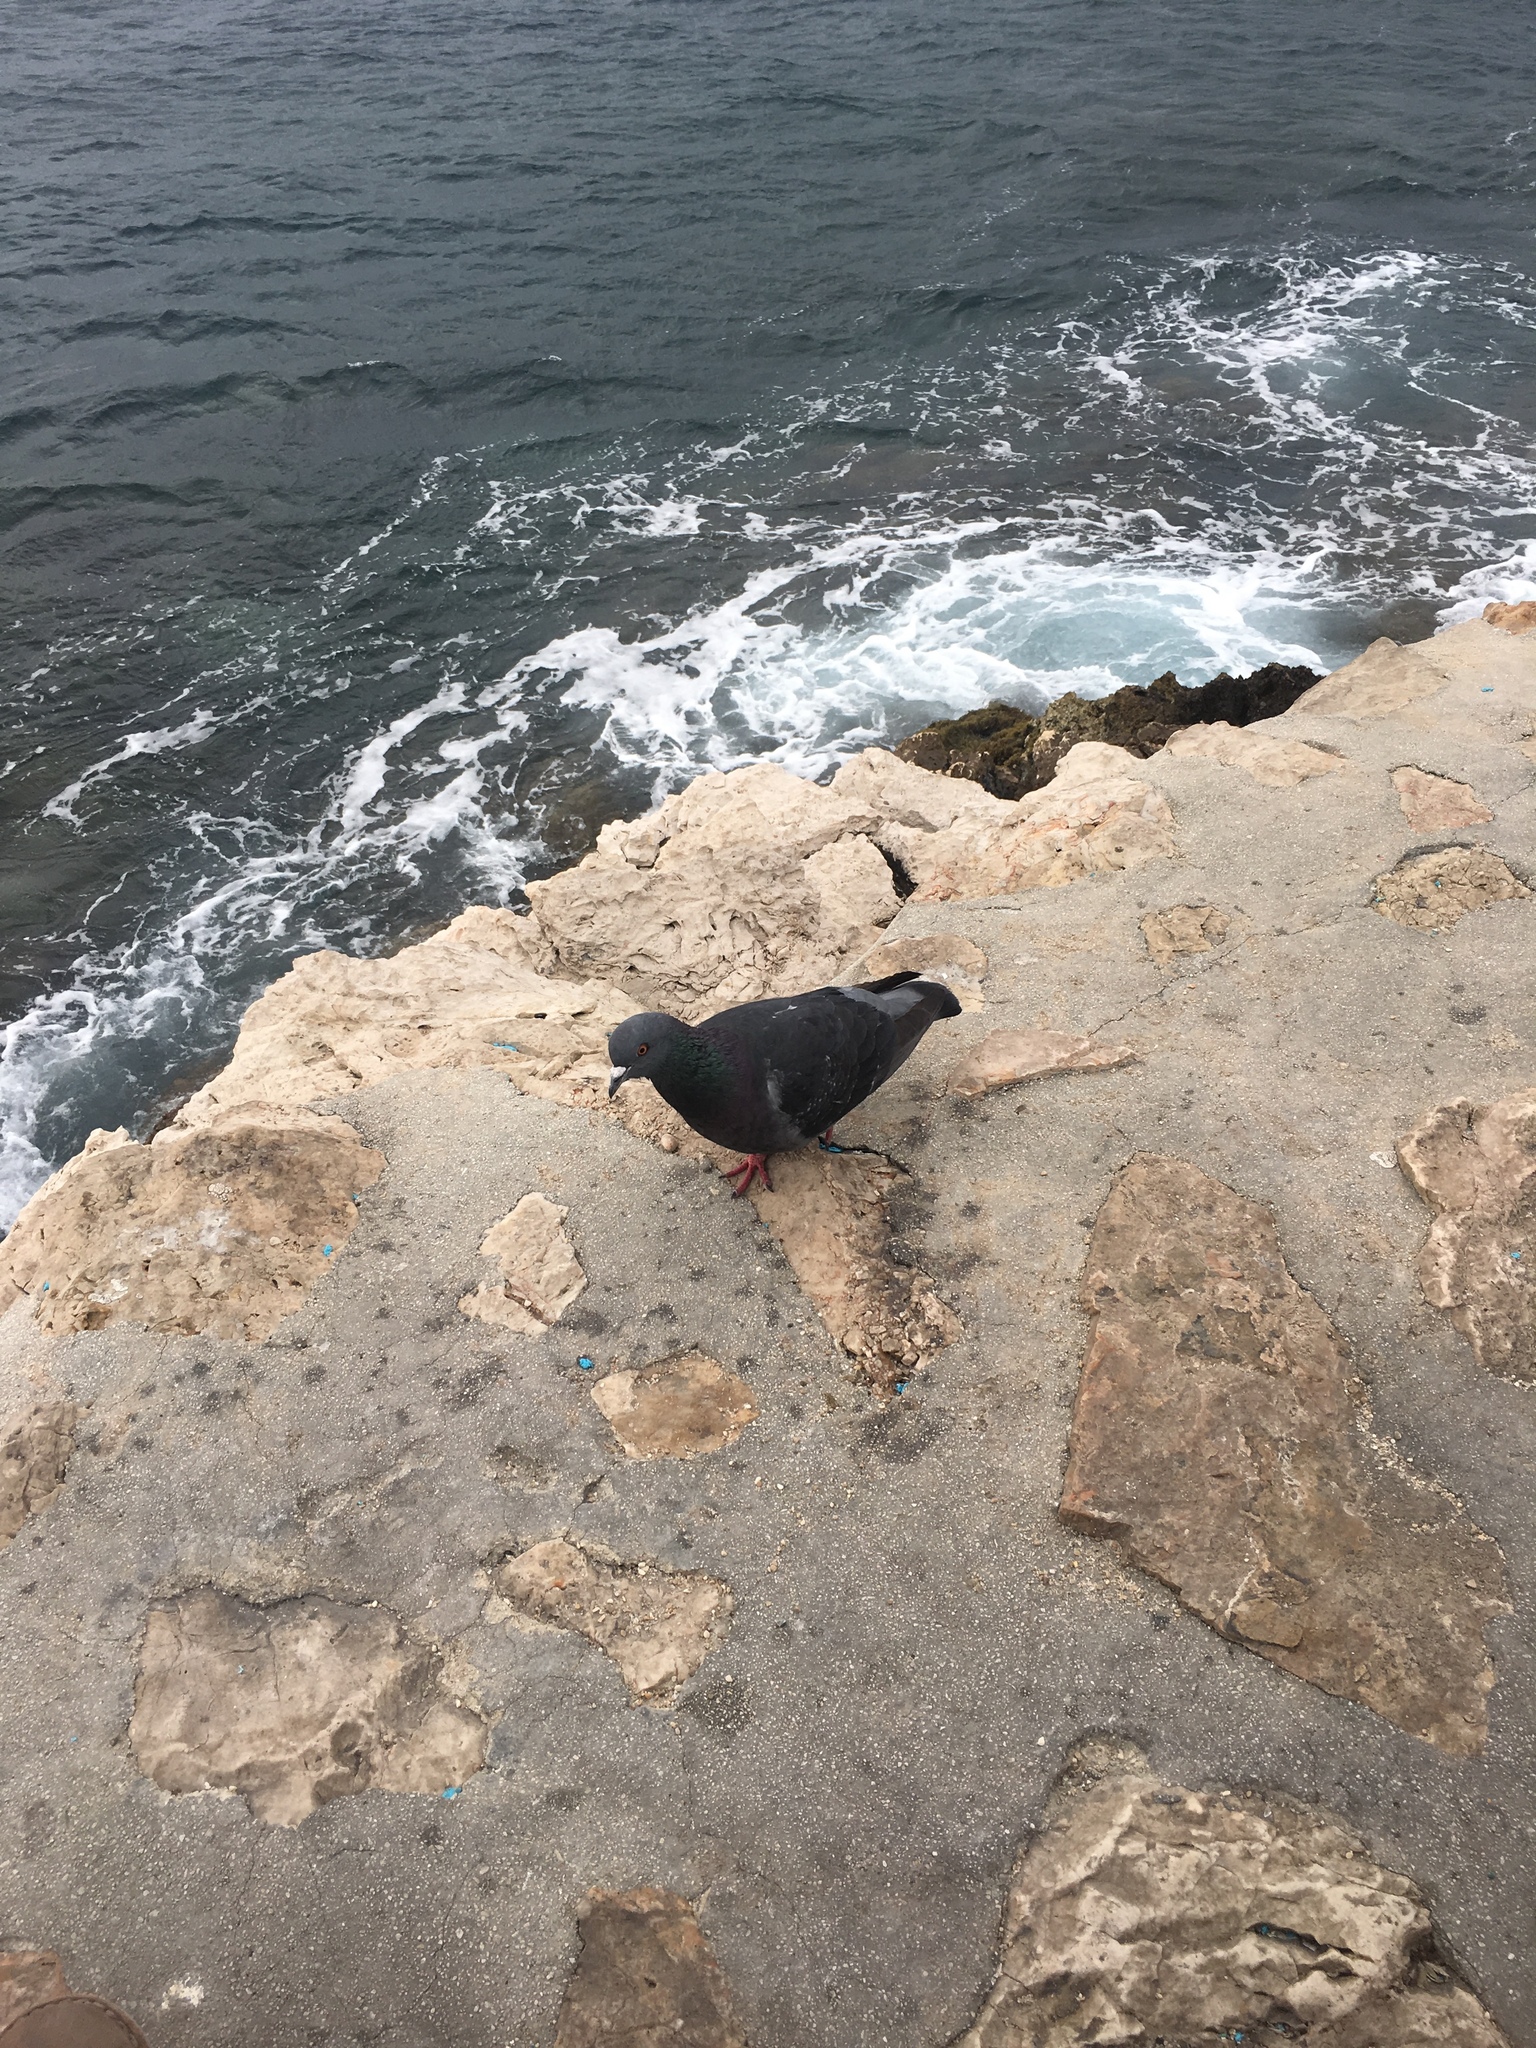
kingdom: Animalia
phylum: Chordata
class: Aves
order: Columbiformes
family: Columbidae
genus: Columba
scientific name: Columba livia
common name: Rock pigeon
